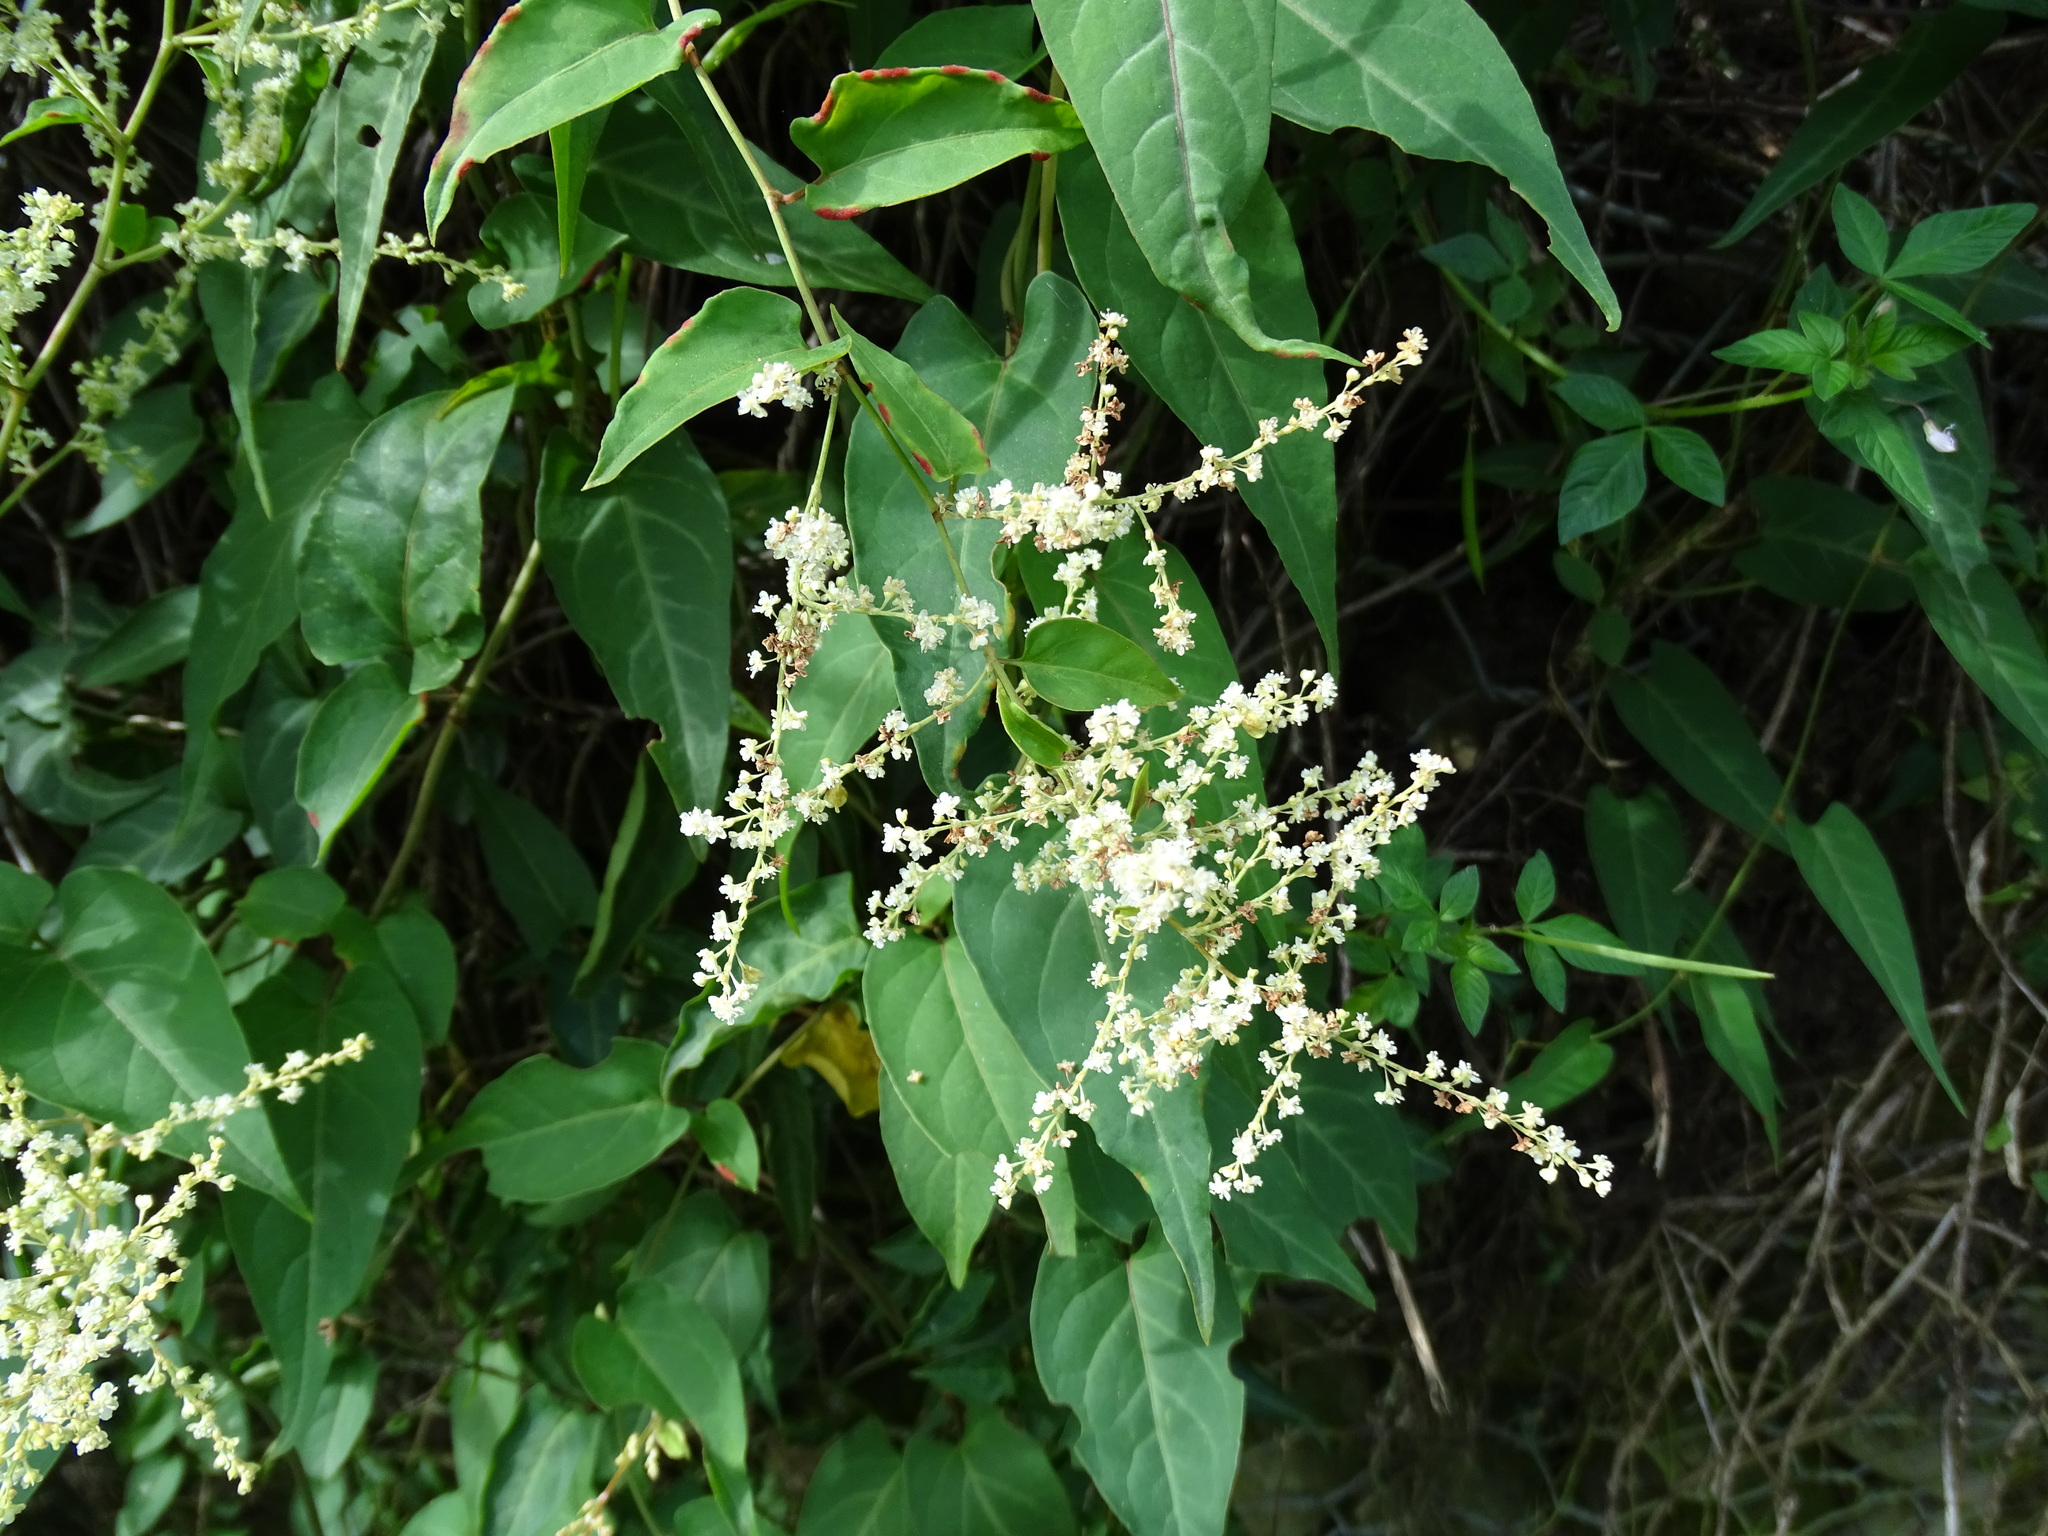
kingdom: Plantae
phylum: Tracheophyta
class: Magnoliopsida
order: Caryophyllales
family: Polygonaceae
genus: Reynoutria
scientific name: Reynoutria multiflora
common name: Chinese fleeceflower
